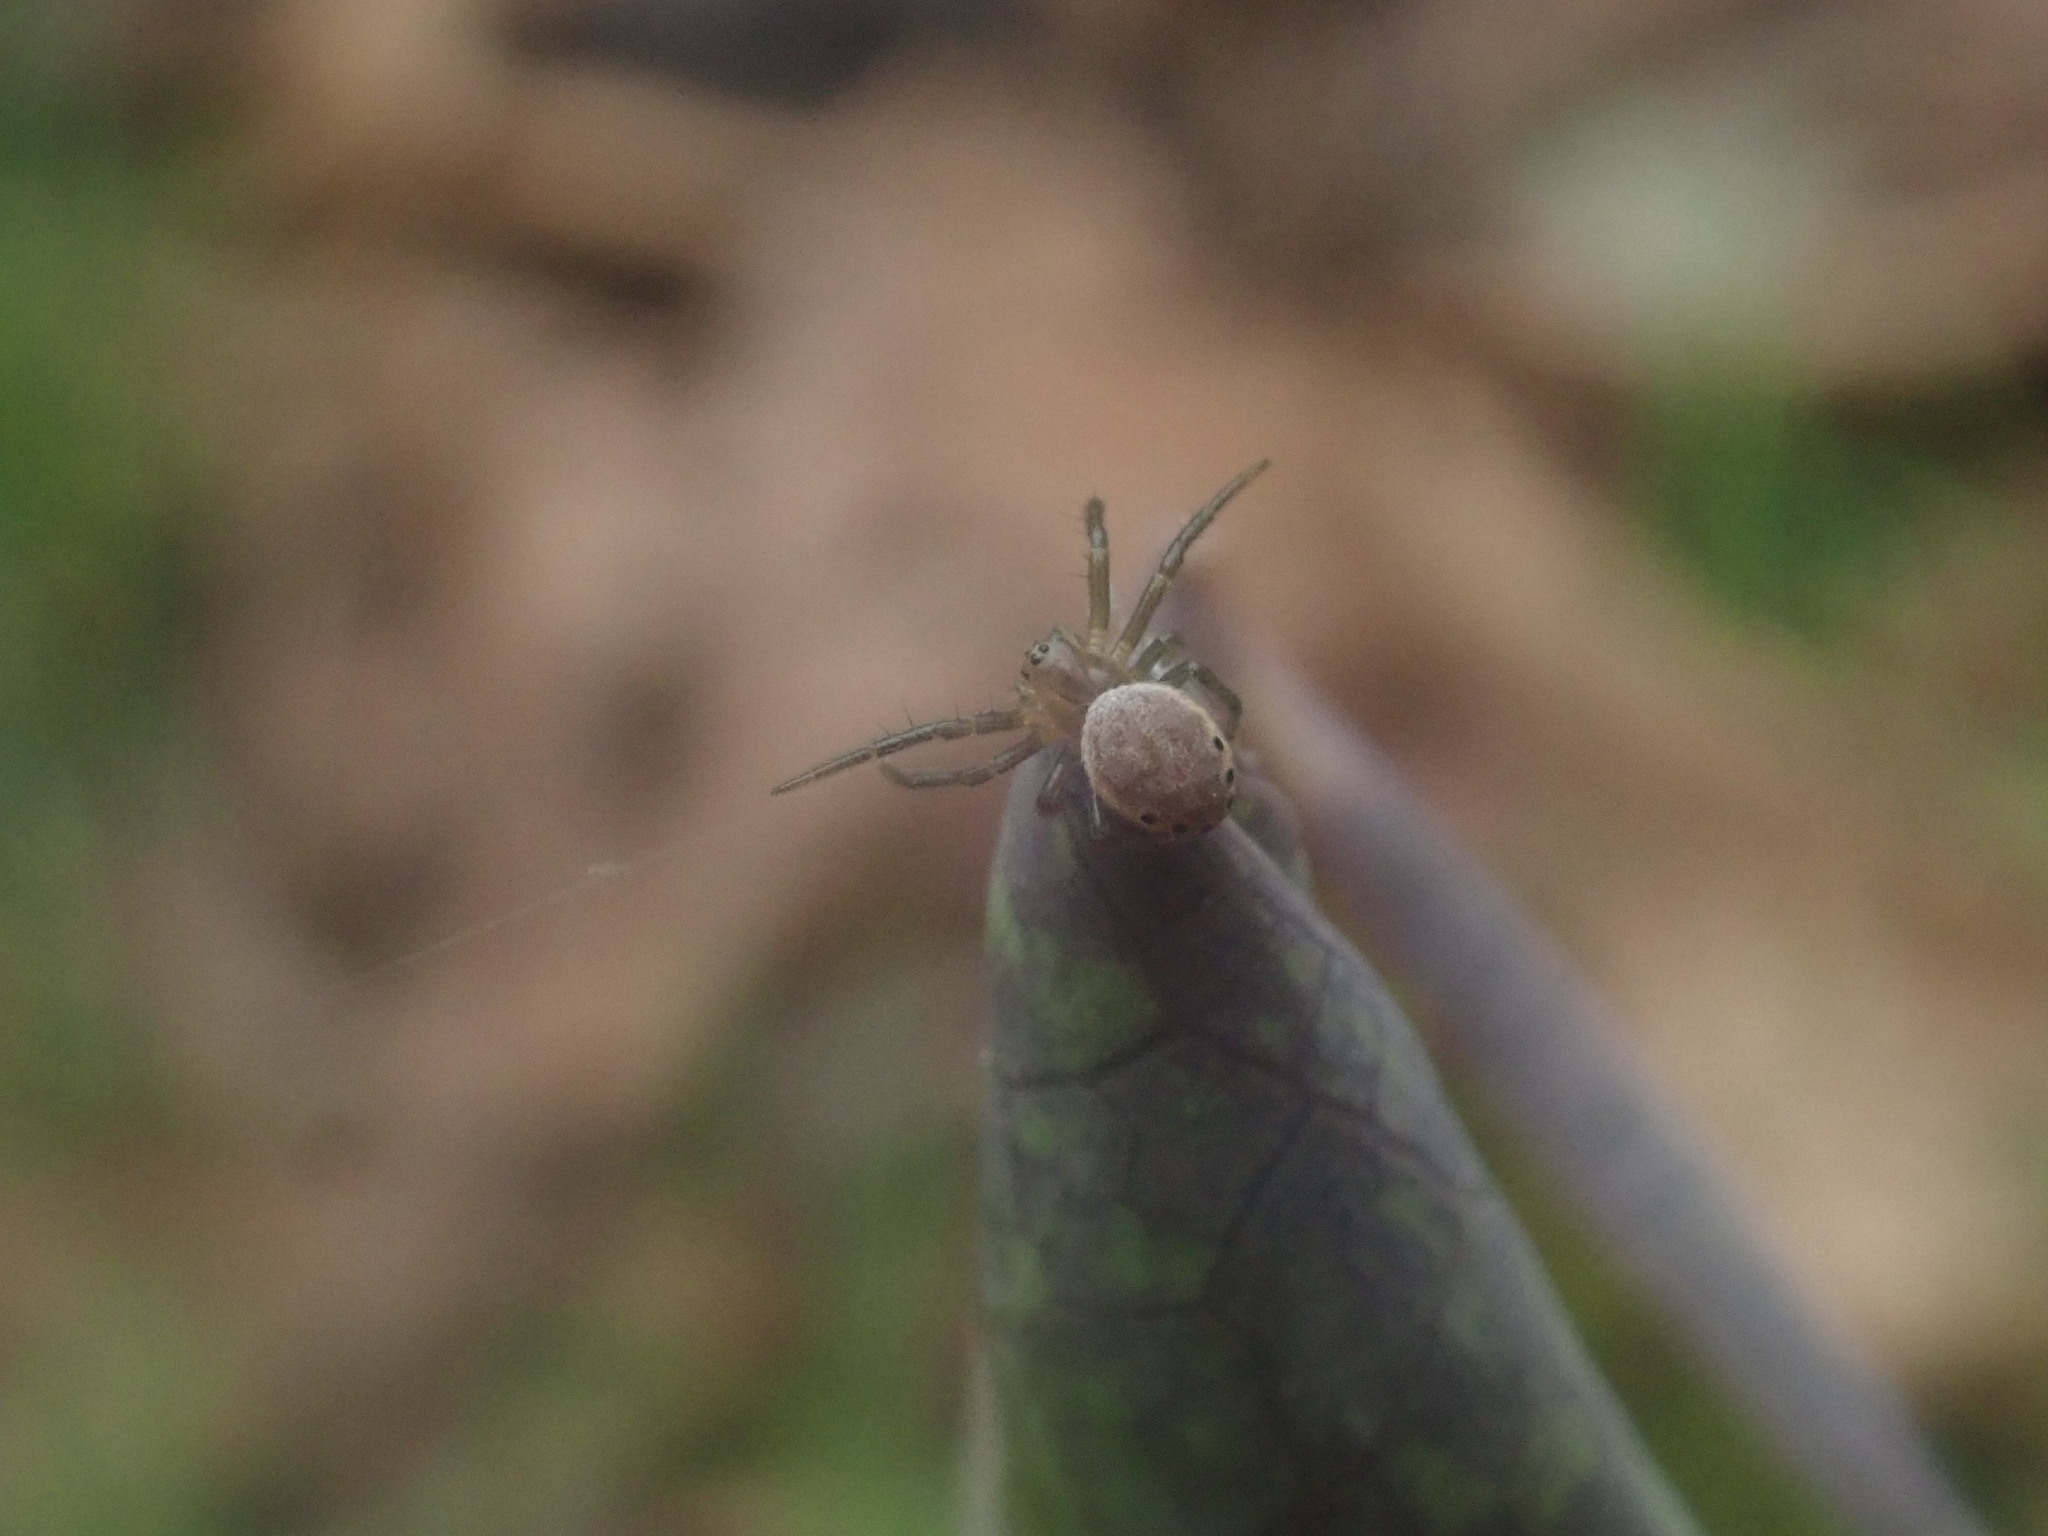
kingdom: Animalia
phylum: Arthropoda
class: Arachnida
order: Araneae
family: Araneidae
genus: Araniella
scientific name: Araniella displicata
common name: Sixspotted orb weaver
